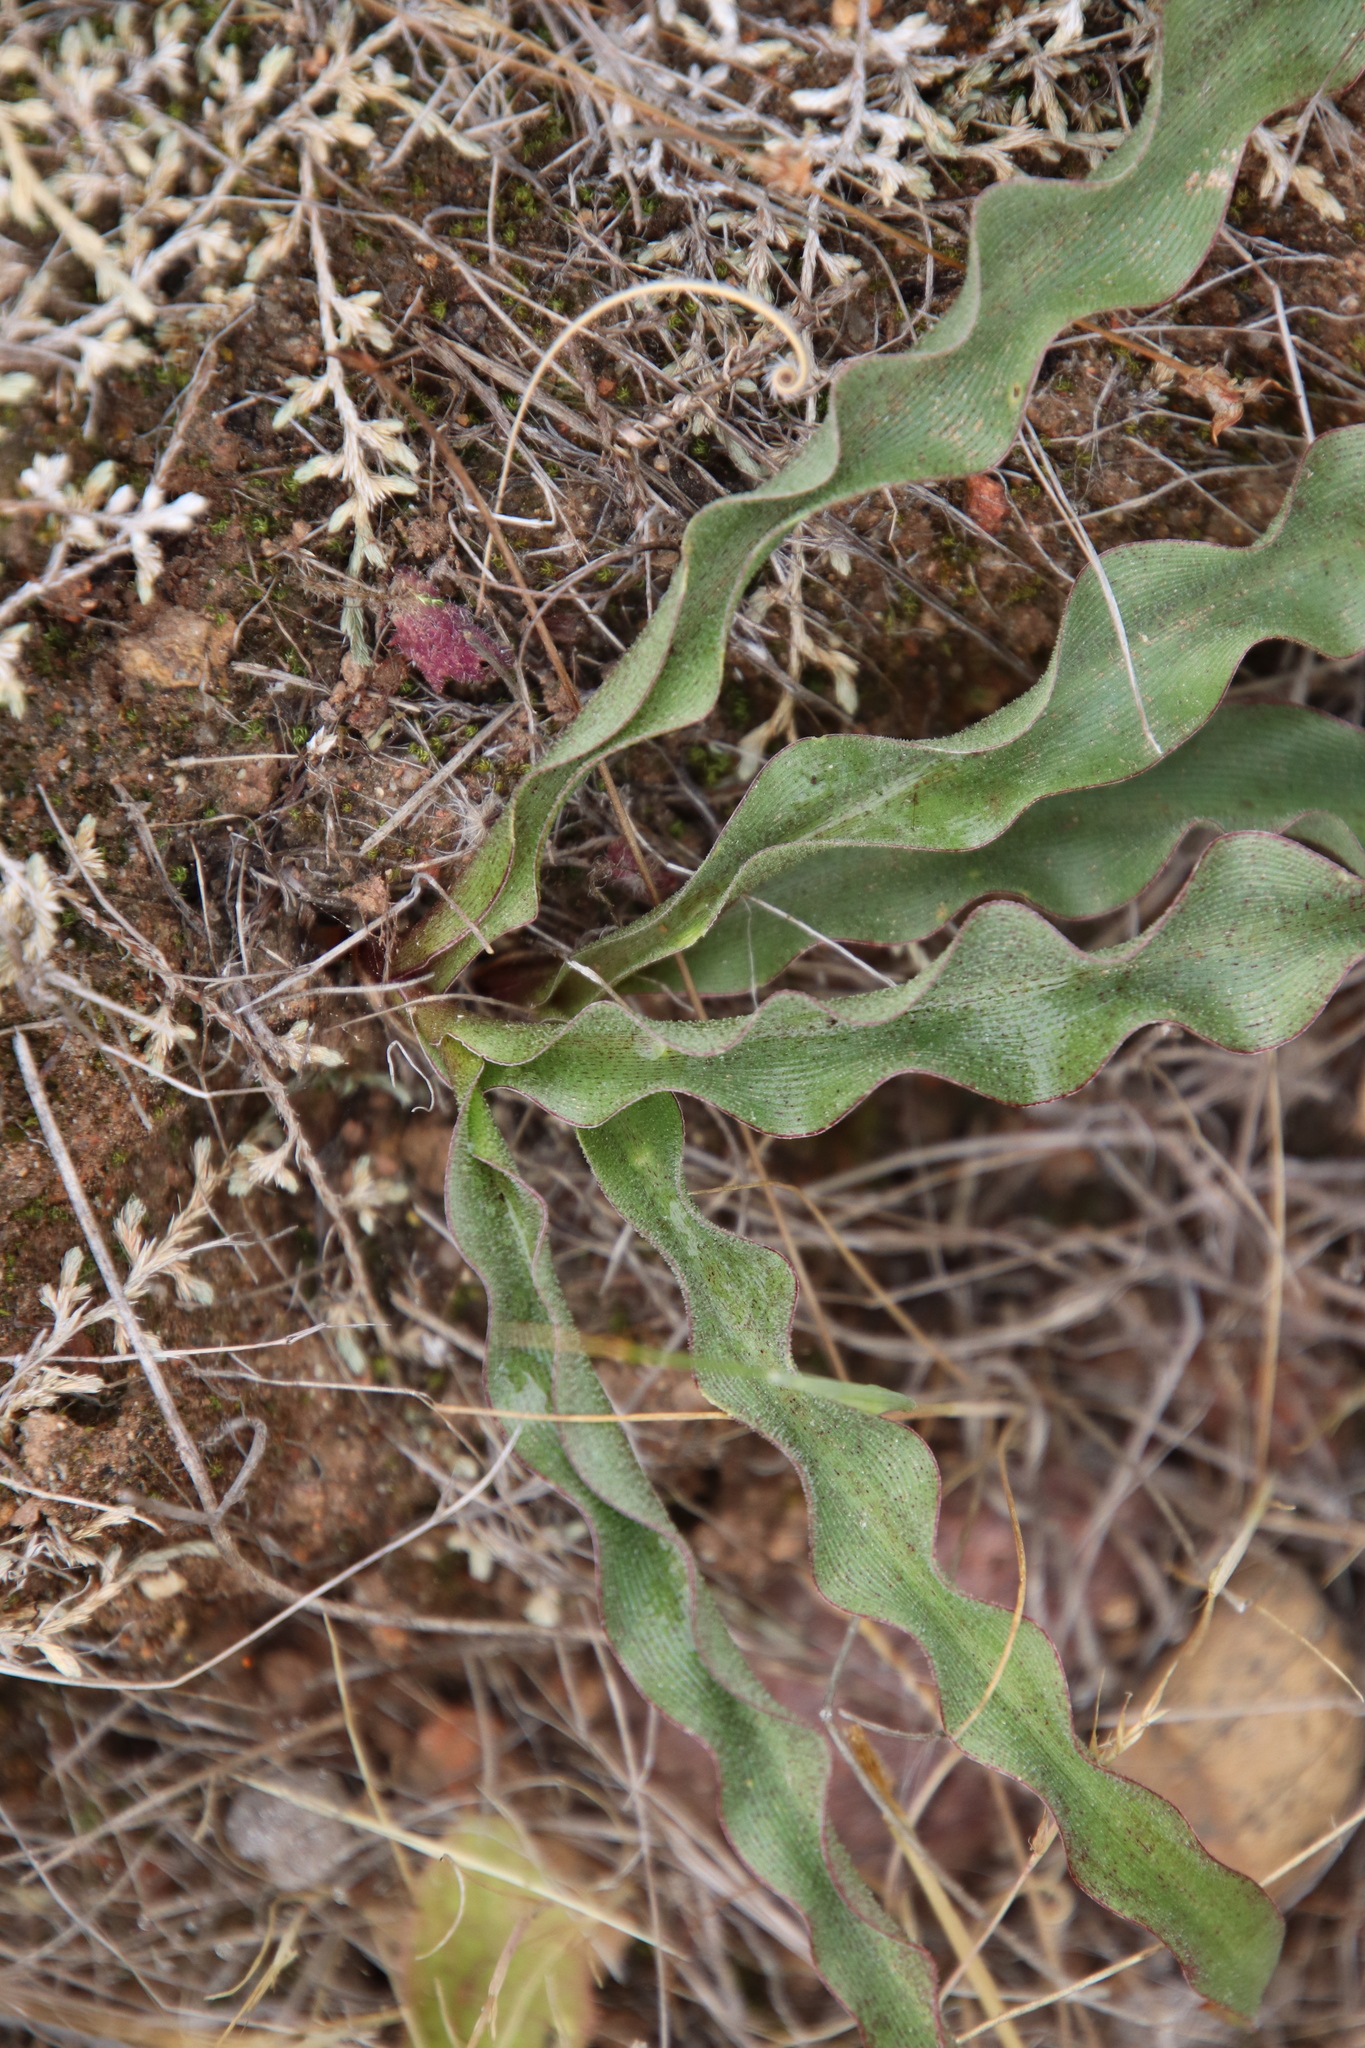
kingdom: Plantae
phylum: Tracheophyta
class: Liliopsida
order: Asparagales
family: Asparagaceae
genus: Hooveria
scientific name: Hooveria parviflora
